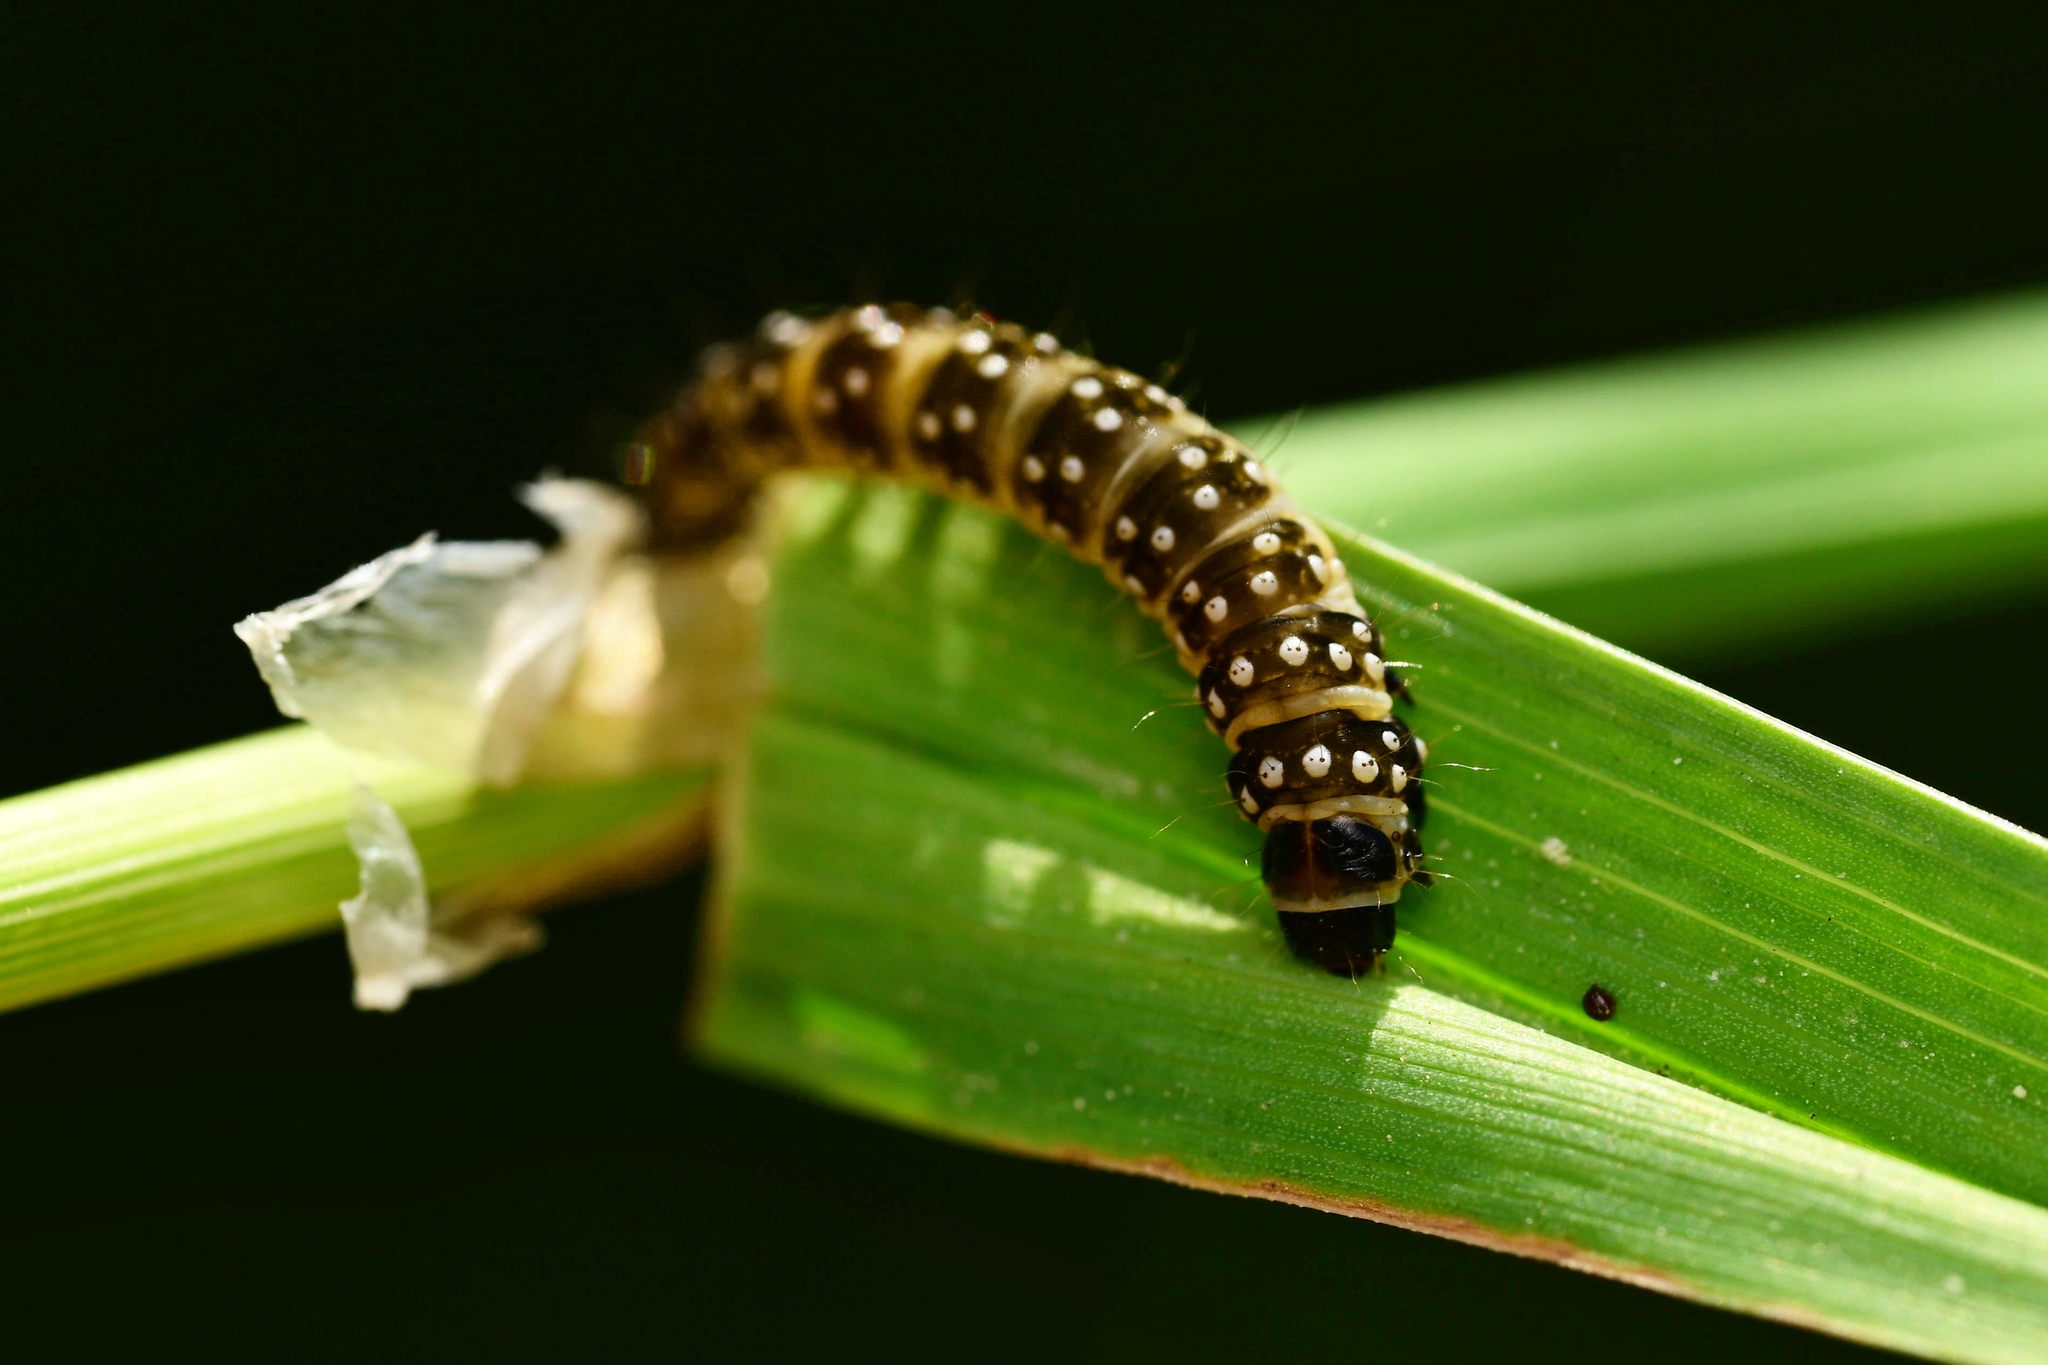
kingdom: Animalia
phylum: Arthropoda
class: Insecta
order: Lepidoptera
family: Tortricidae
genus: Aphelia
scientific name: Aphelia Zelotherses paleana
